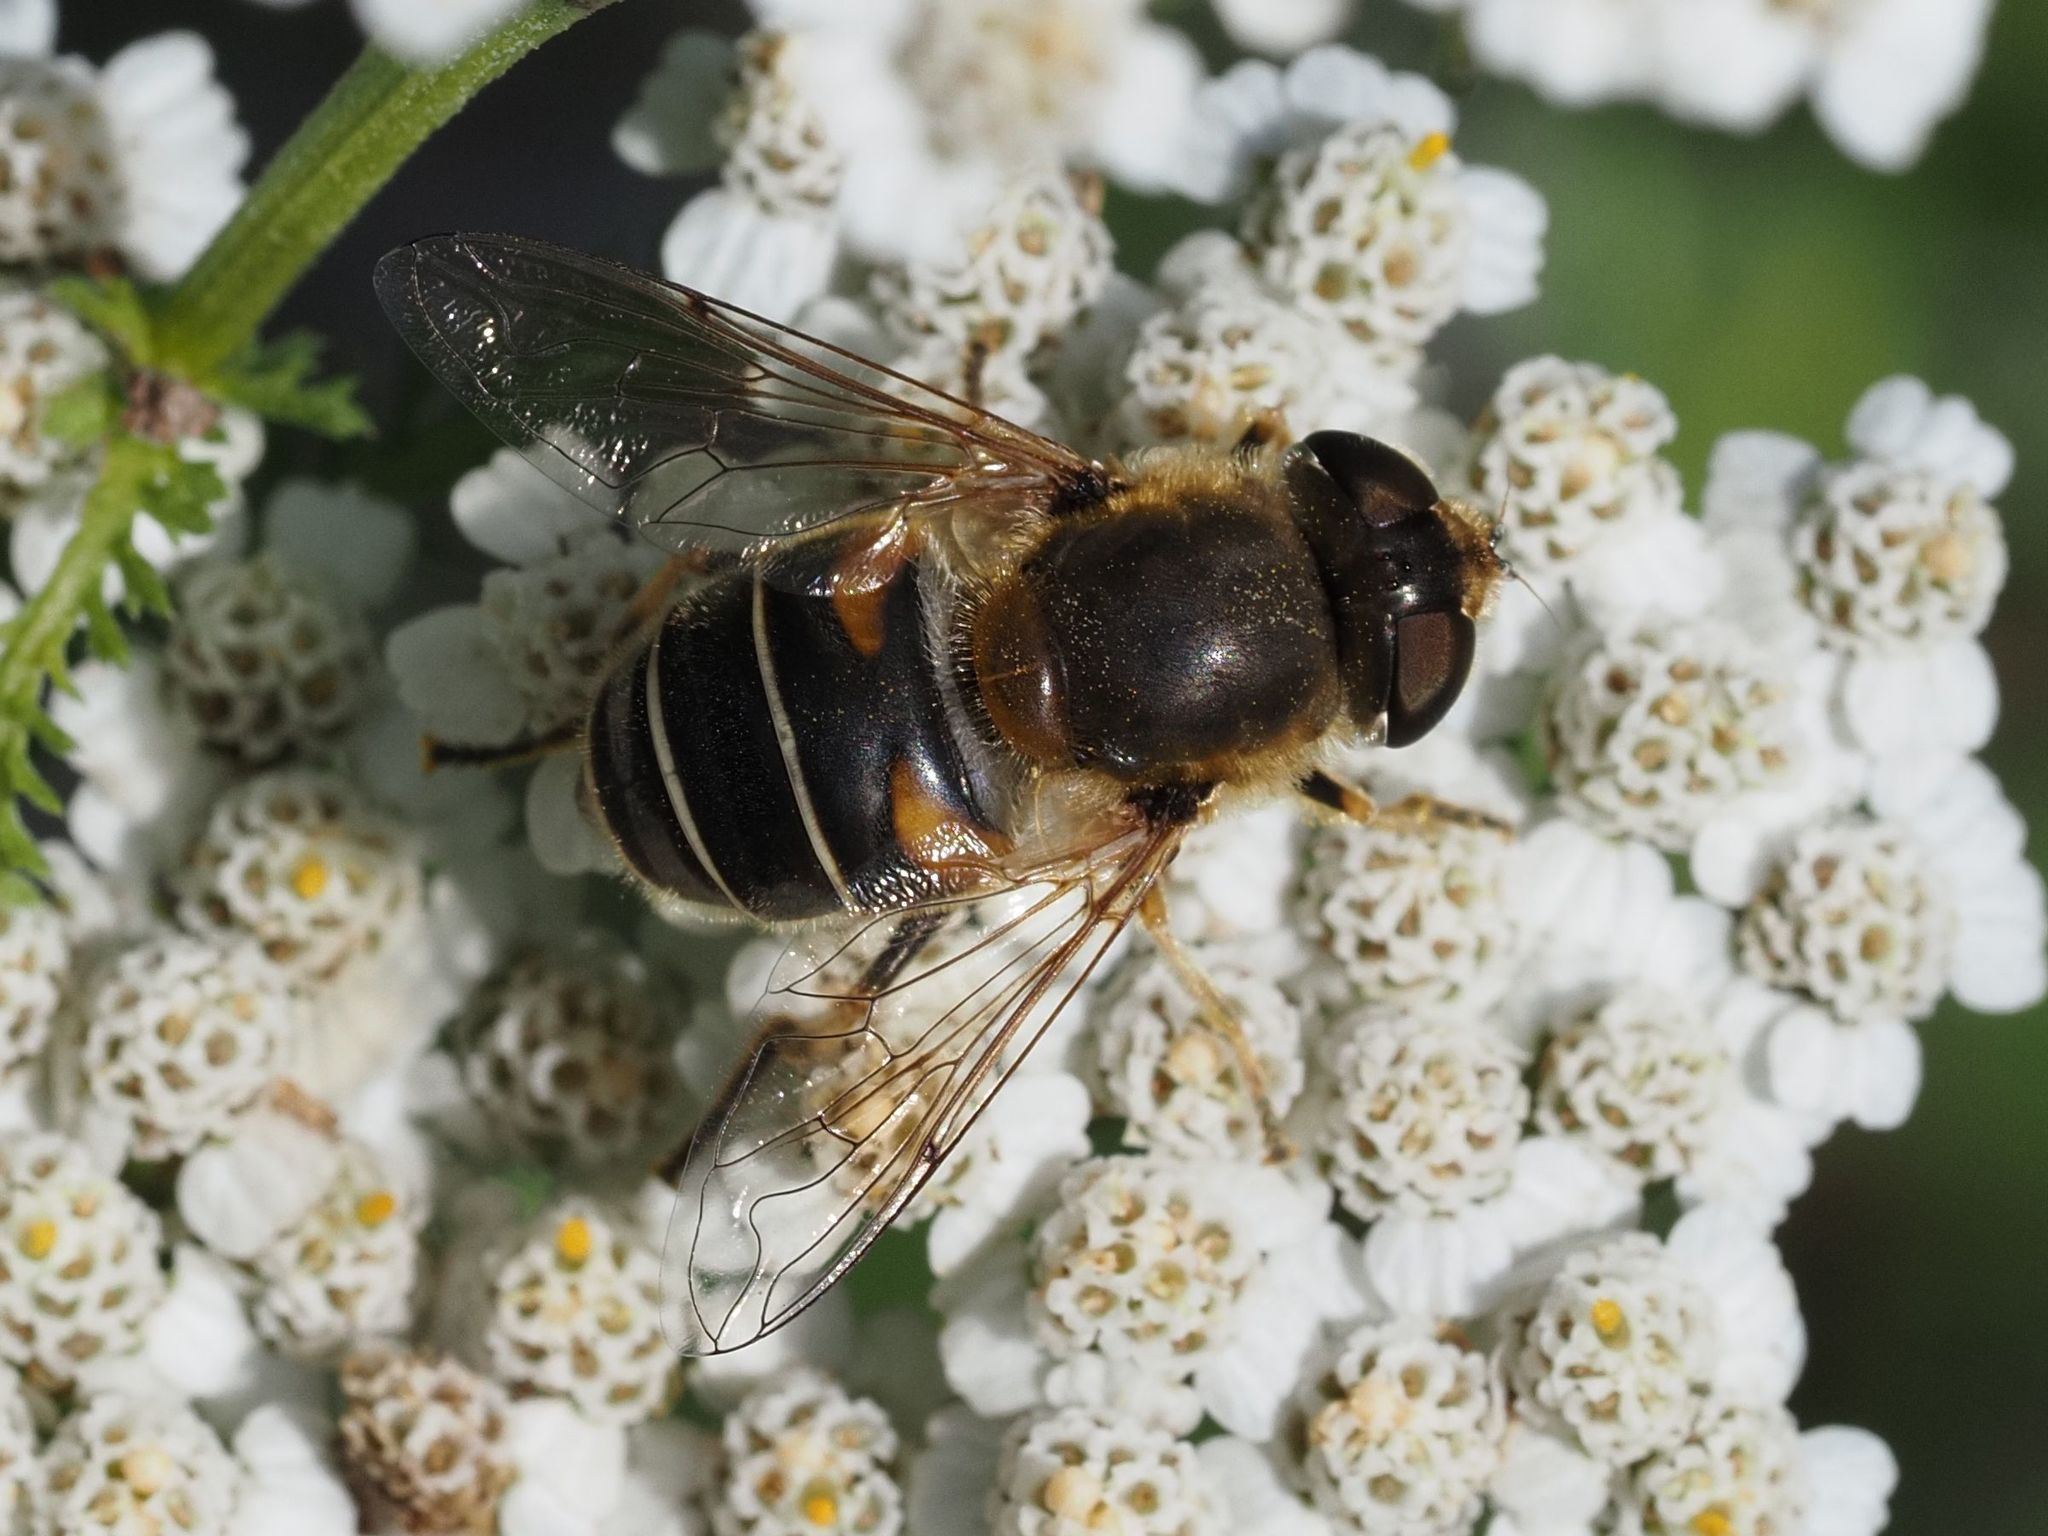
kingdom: Animalia
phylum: Arthropoda
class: Insecta
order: Diptera
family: Syrphidae
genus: Eristalis
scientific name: Eristalis nemorum
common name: Orange-spined drone fly
